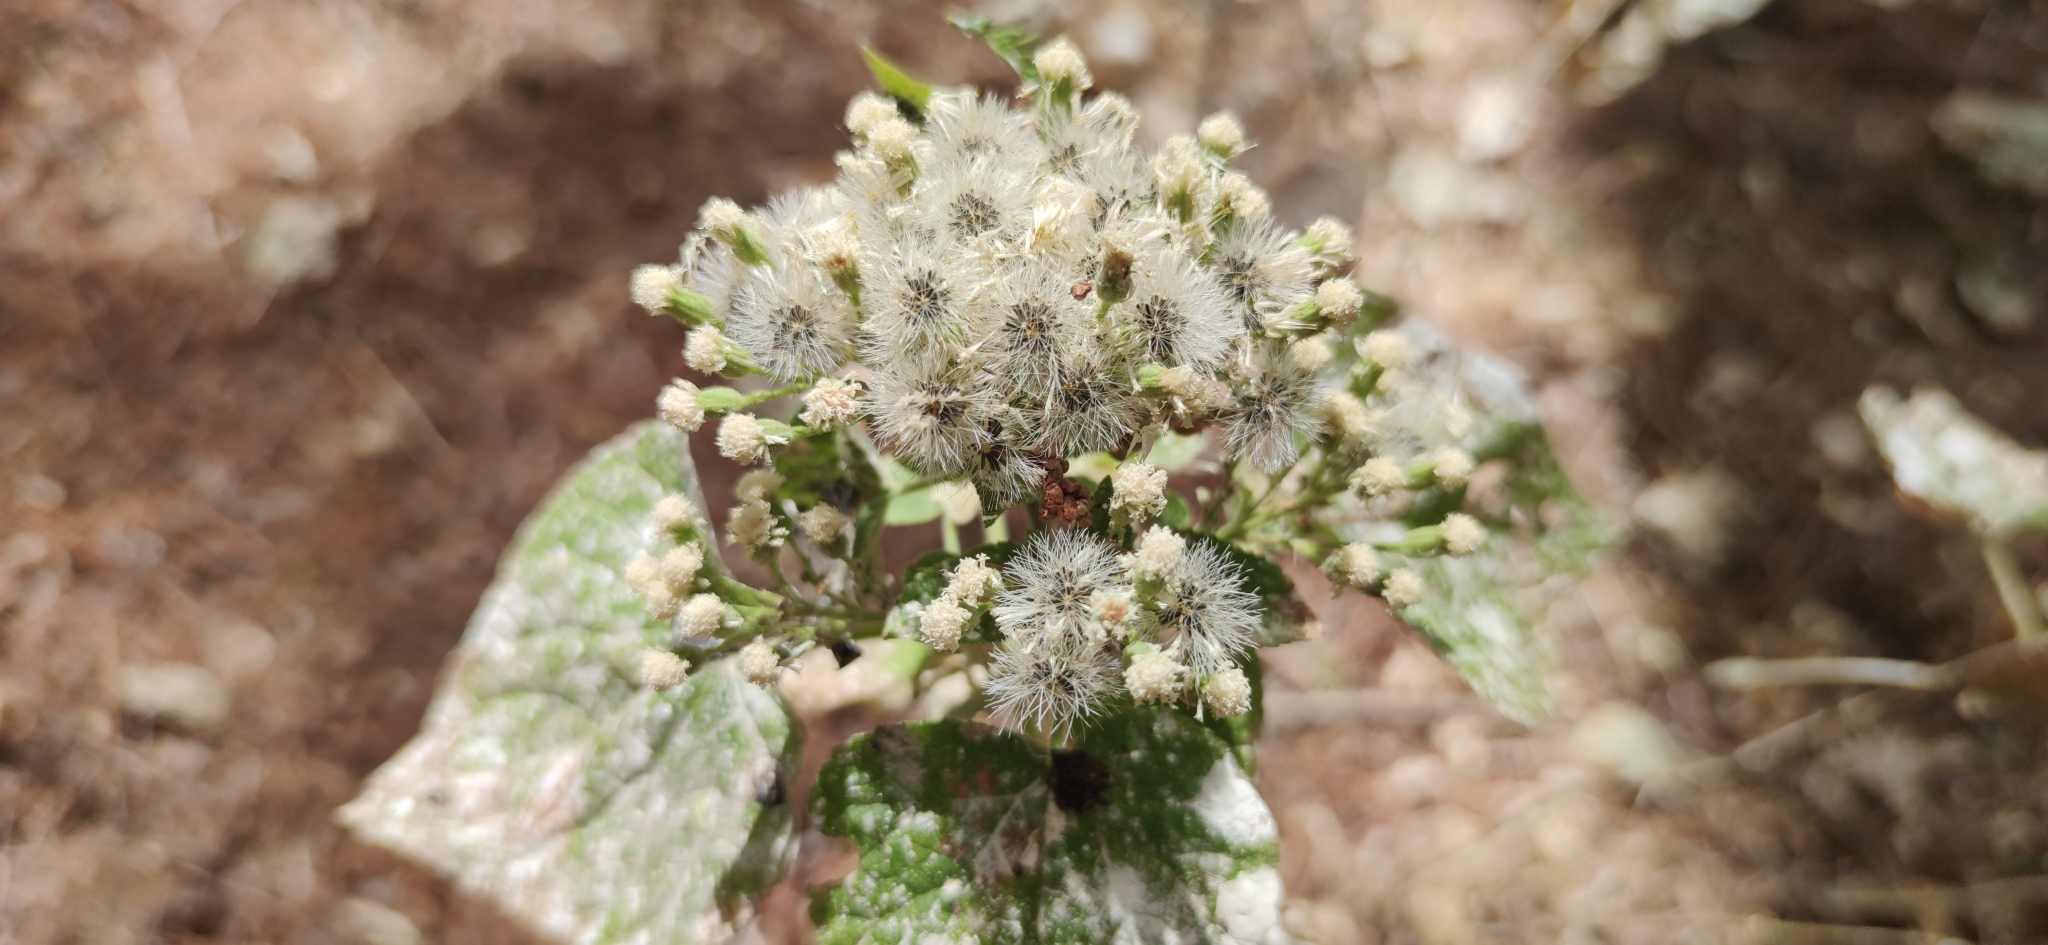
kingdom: Plantae
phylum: Tracheophyta
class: Magnoliopsida
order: Asterales
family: Asteraceae
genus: Ageratina
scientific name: Ageratina petiolaris
